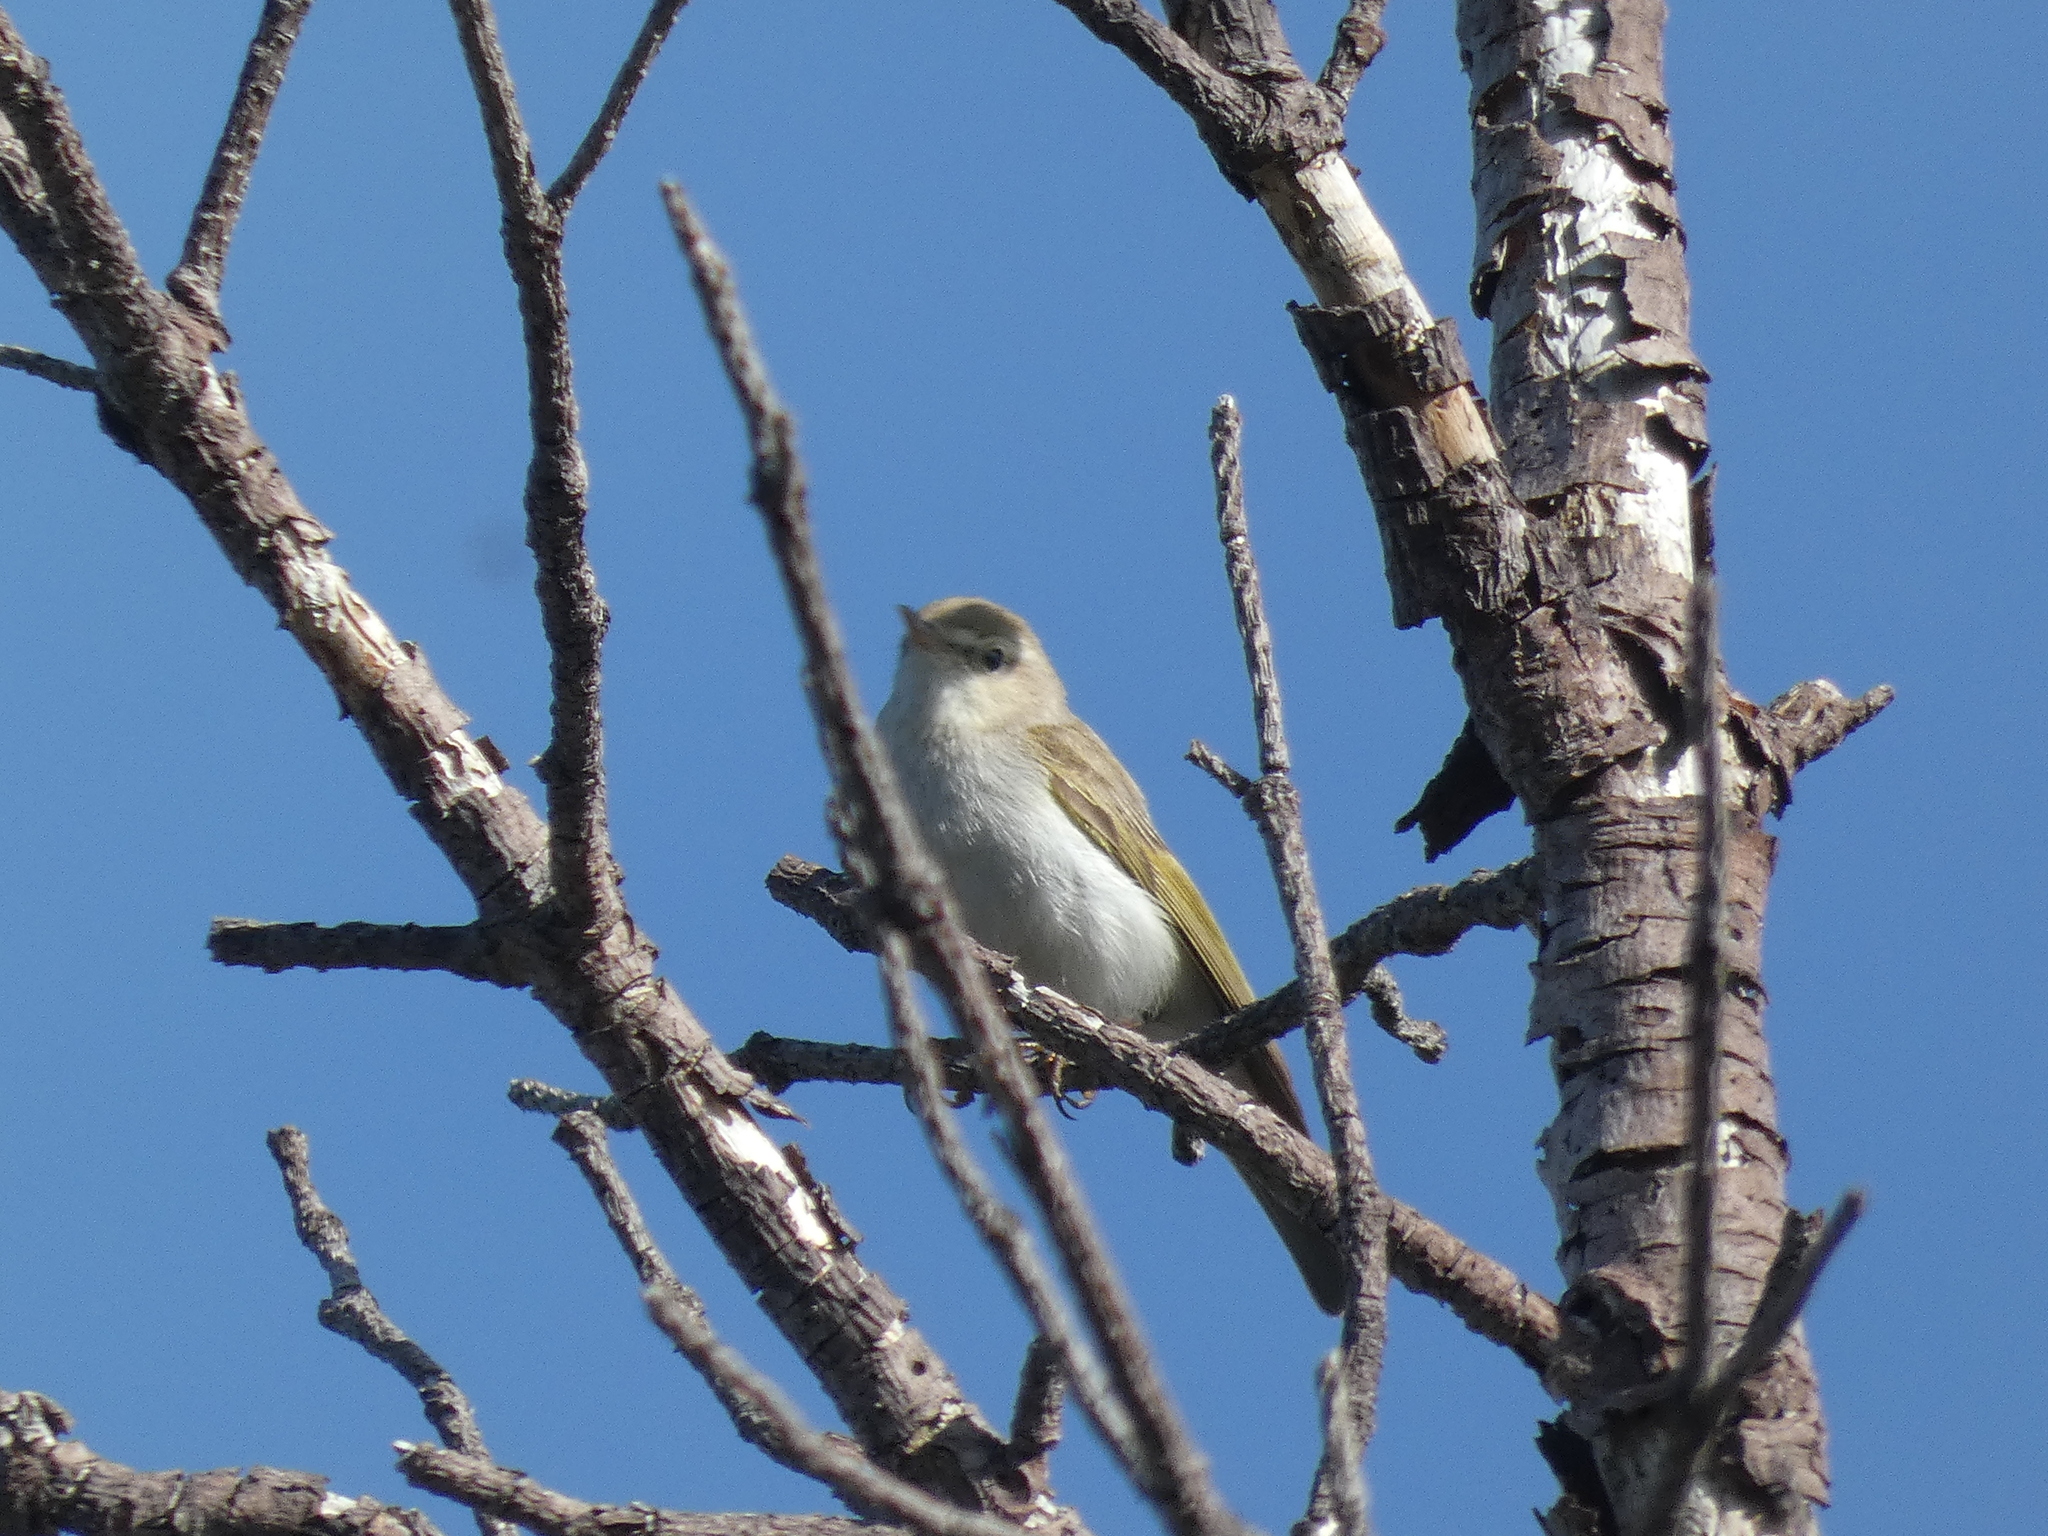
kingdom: Animalia
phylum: Chordata
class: Aves
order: Passeriformes
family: Phylloscopidae
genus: Phylloscopus
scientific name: Phylloscopus bonelli
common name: Western bonelli's warbler
